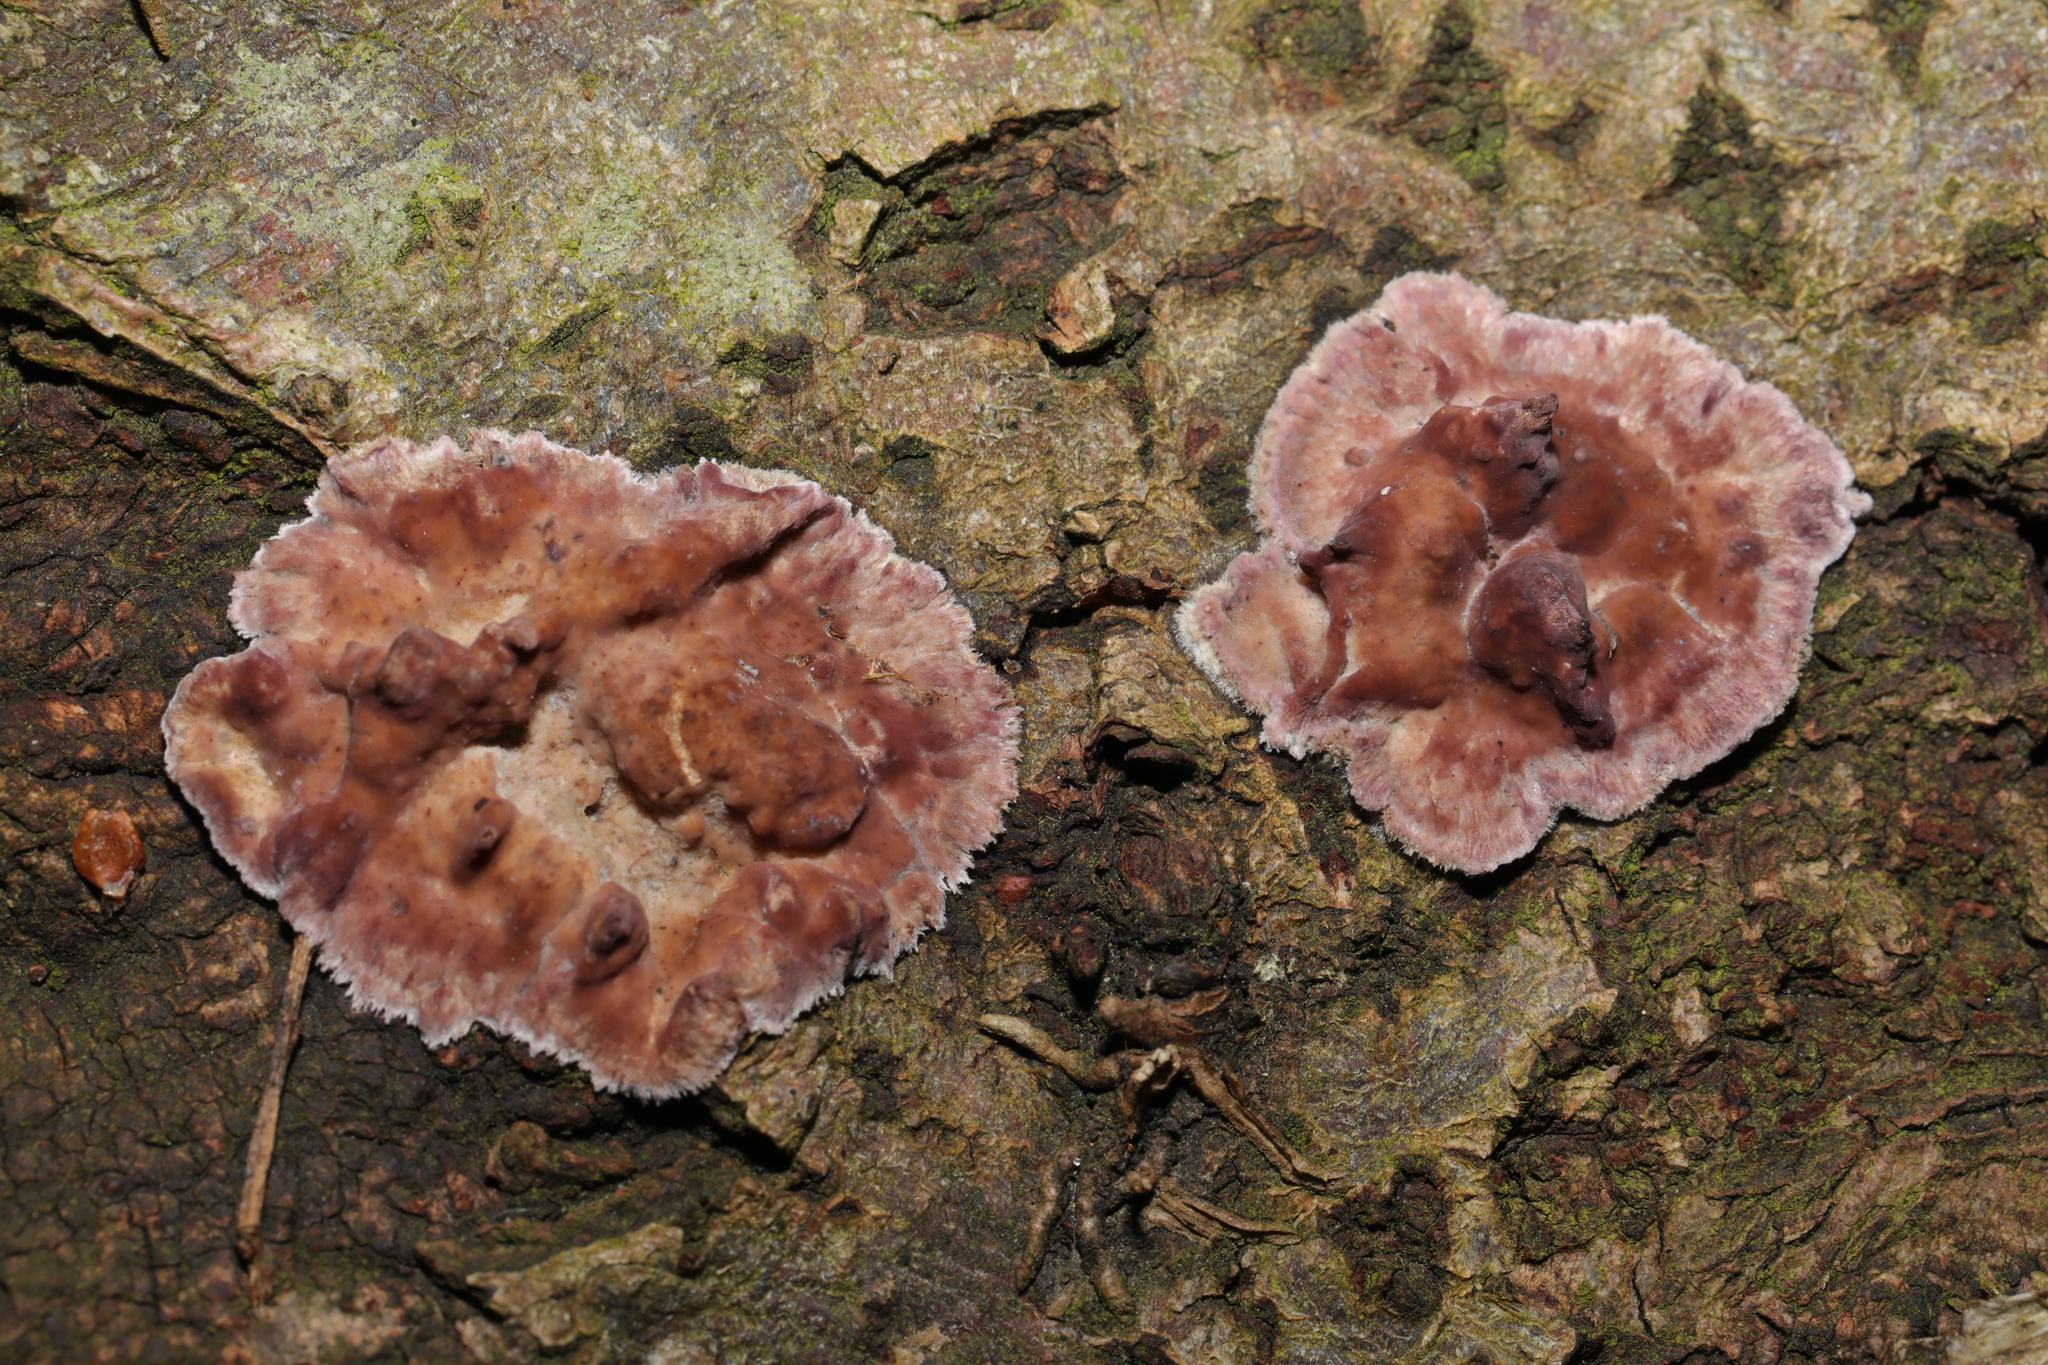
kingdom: Fungi
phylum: Basidiomycota
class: Agaricomycetes
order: Agaricales
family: Cyphellaceae
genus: Chondrostereum
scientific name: Chondrostereum purpureum
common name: Silver leaf disease
